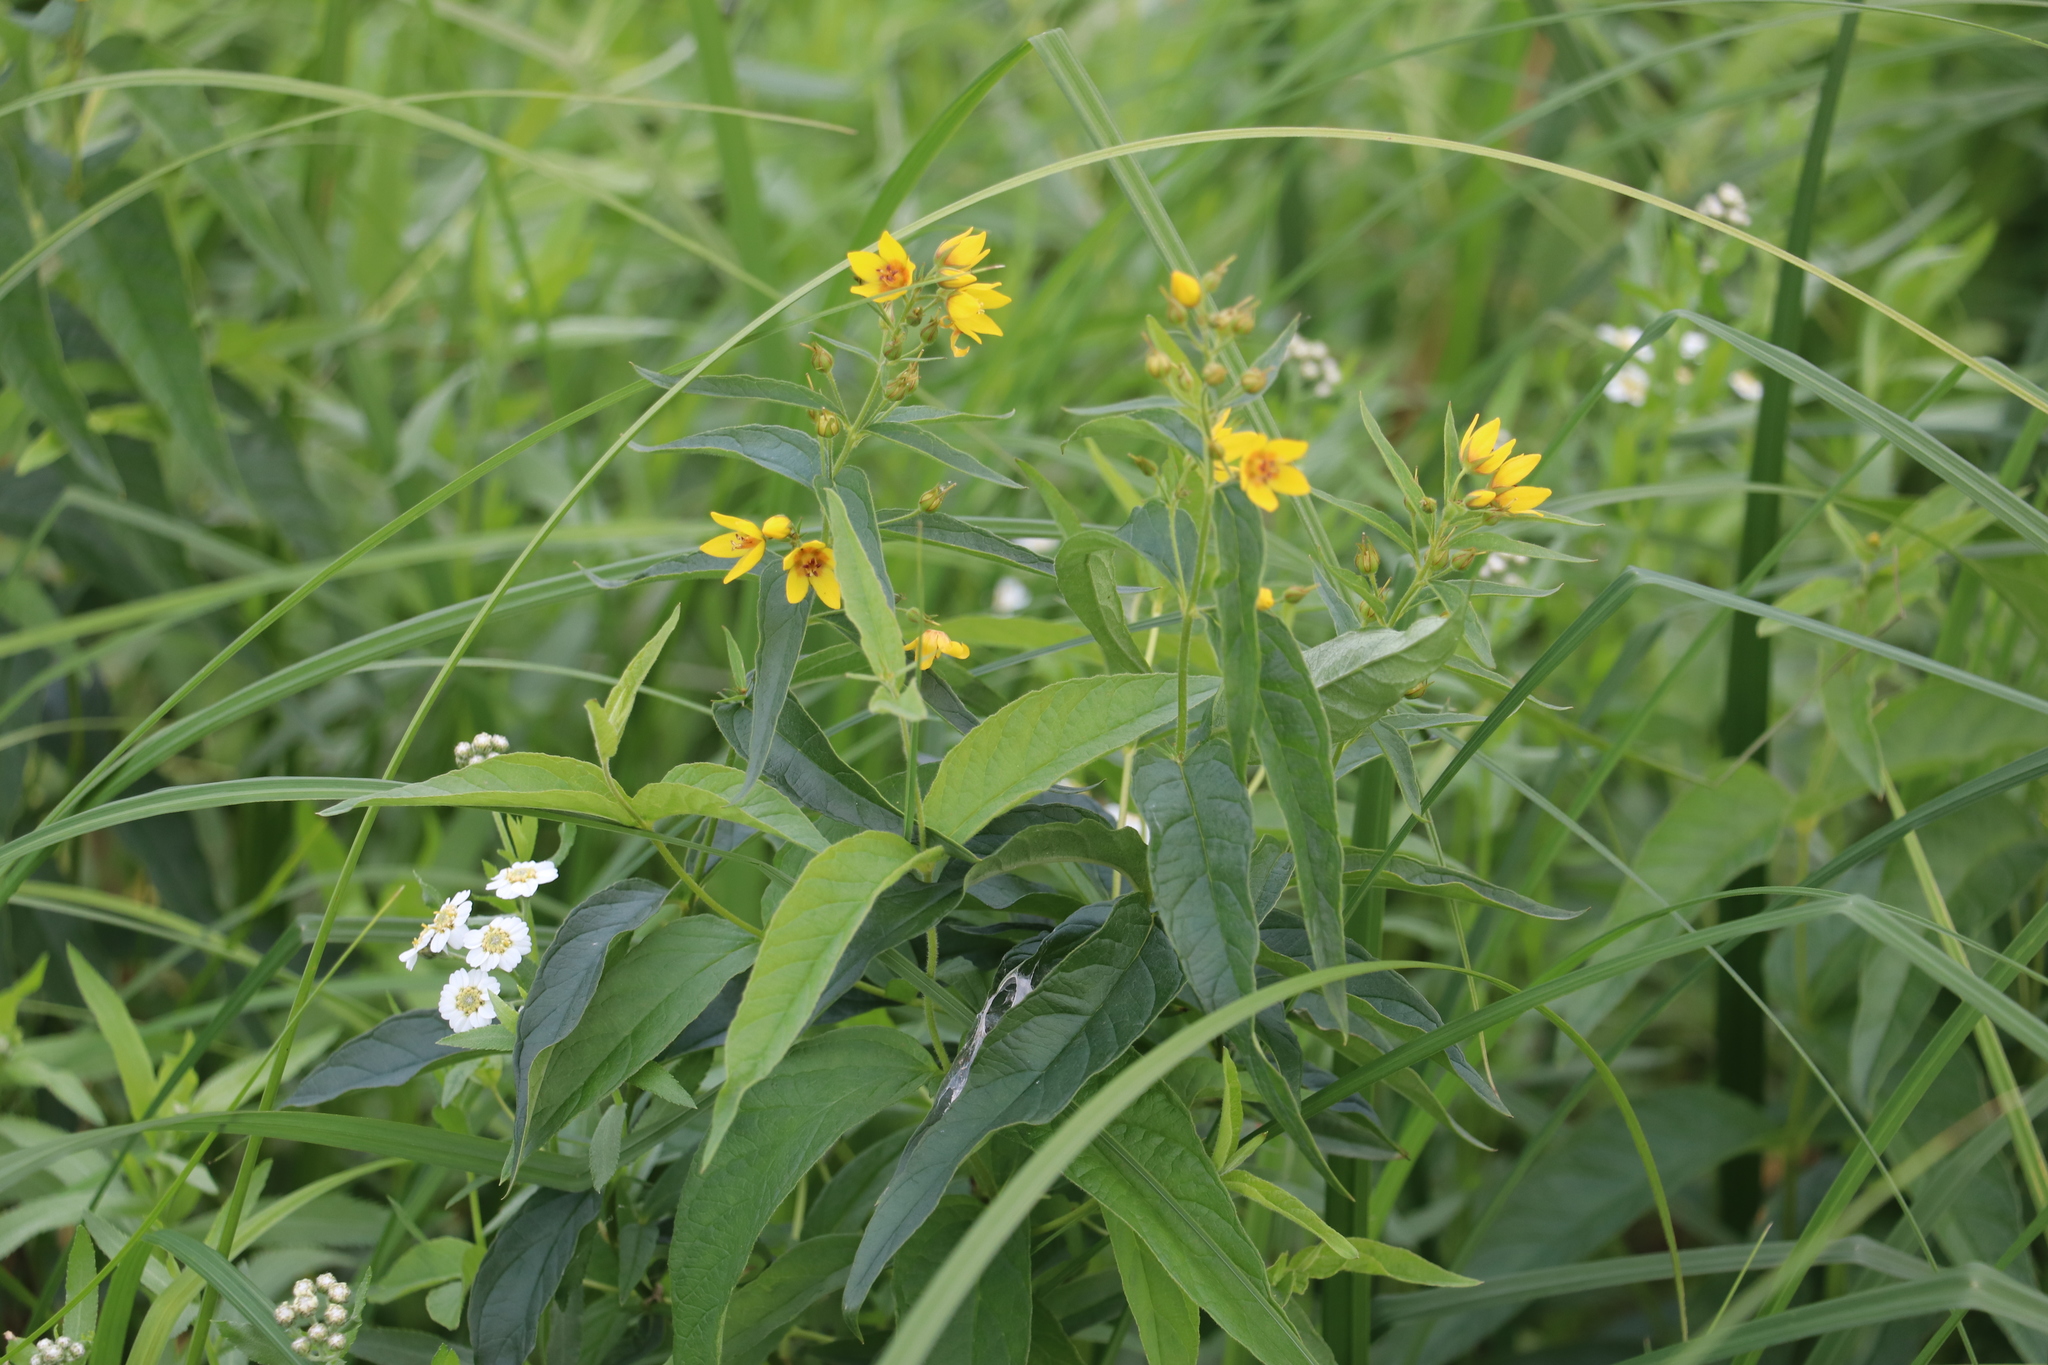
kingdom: Plantae
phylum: Tracheophyta
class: Magnoliopsida
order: Ericales
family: Primulaceae
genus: Lysimachia
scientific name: Lysimachia vulgaris
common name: Yellow loosestrife
